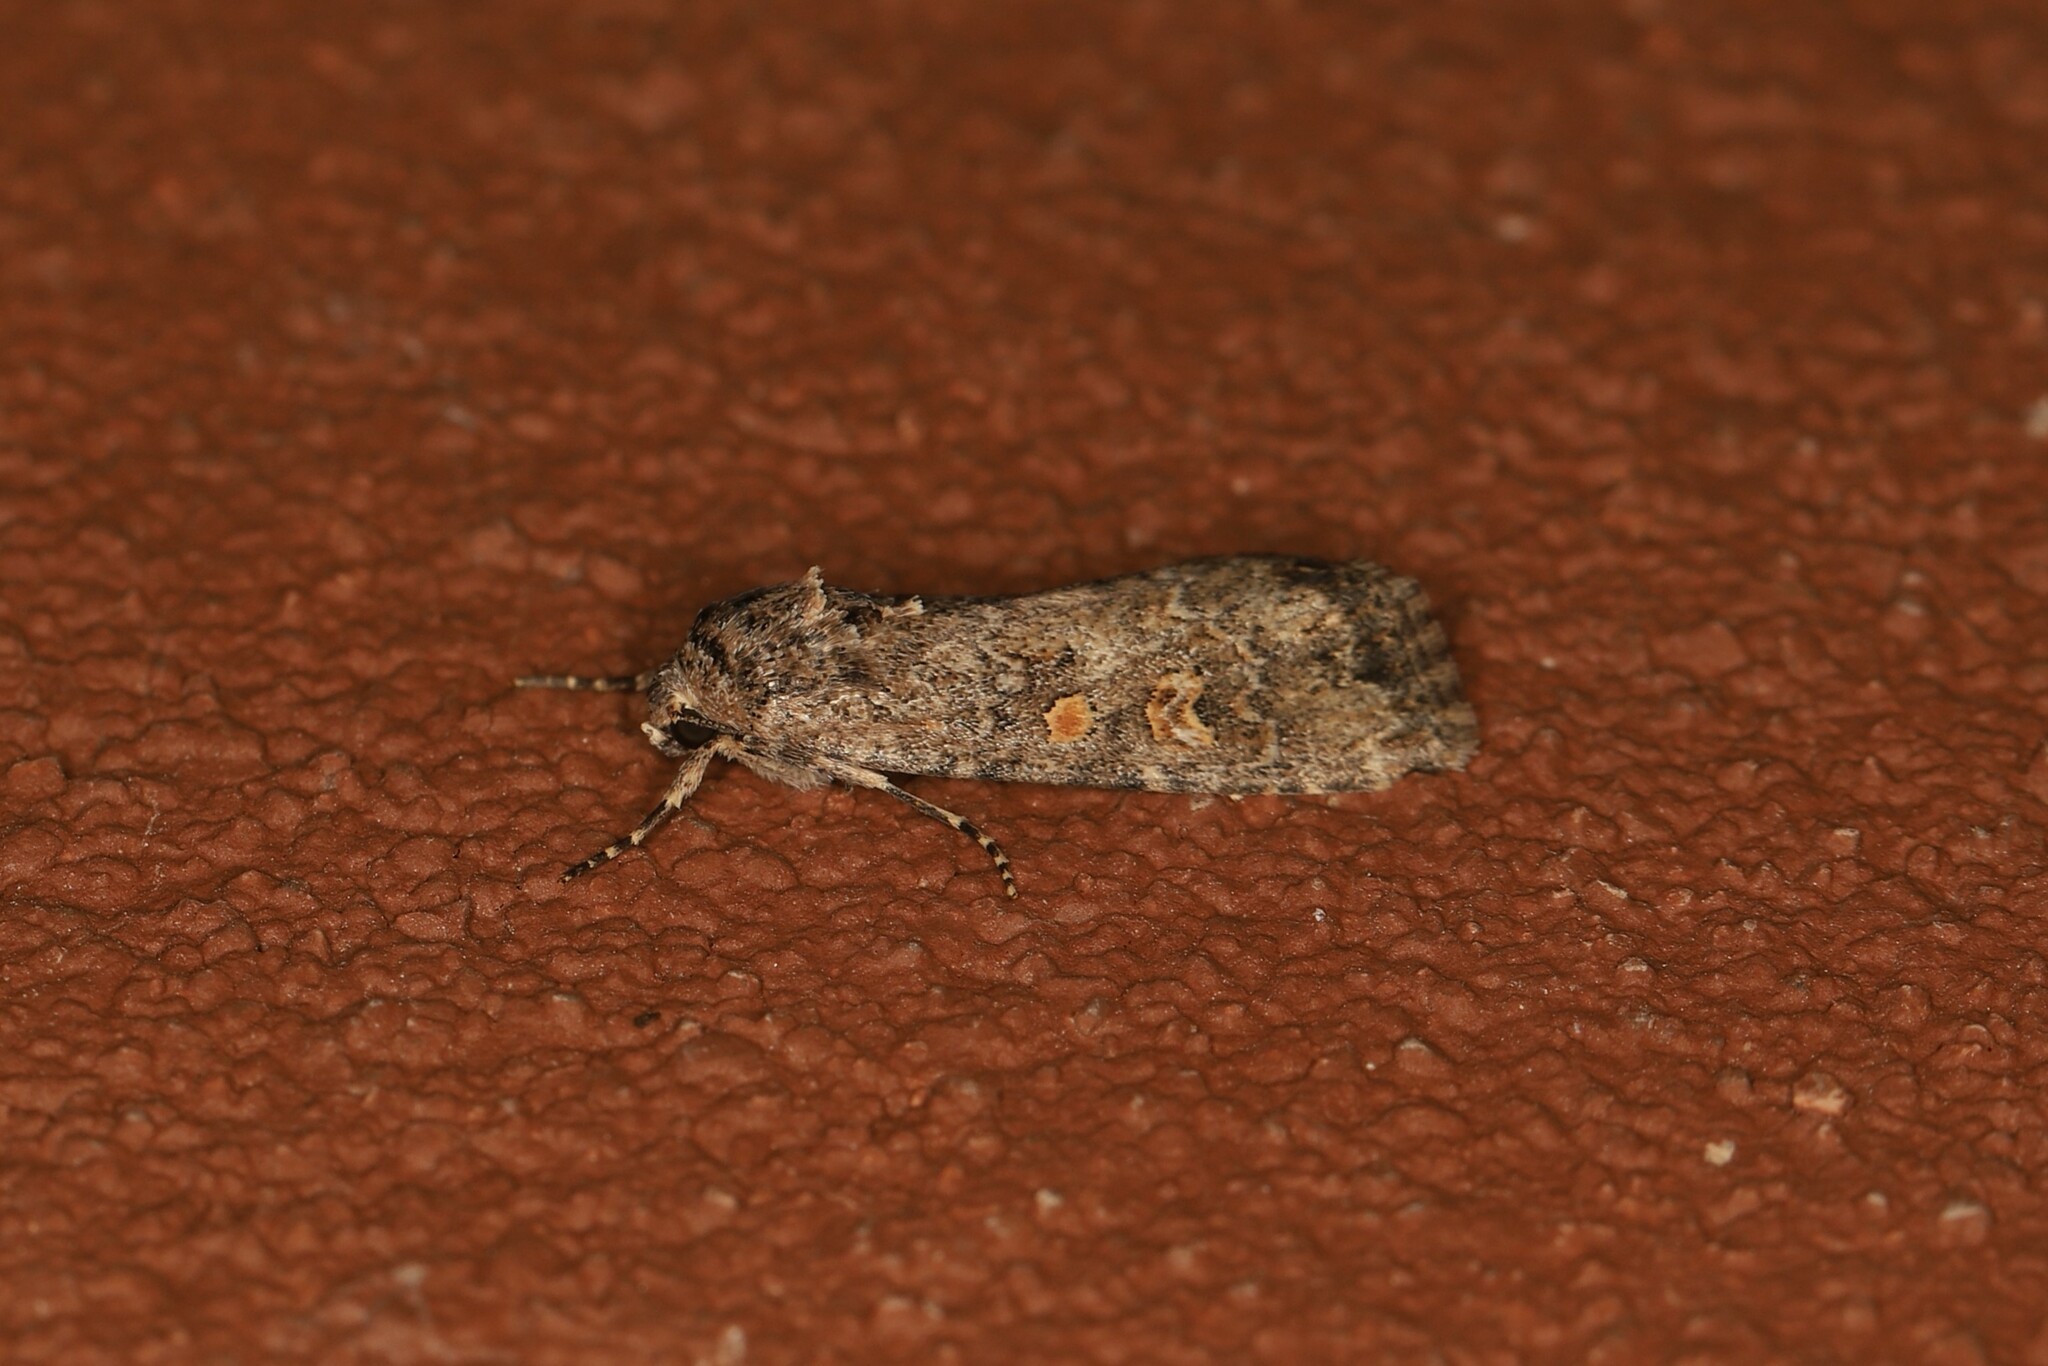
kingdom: Animalia
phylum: Arthropoda
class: Insecta
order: Lepidoptera
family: Noctuidae
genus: Spodoptera
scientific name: Spodoptera exigua
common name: Beet armyworm
